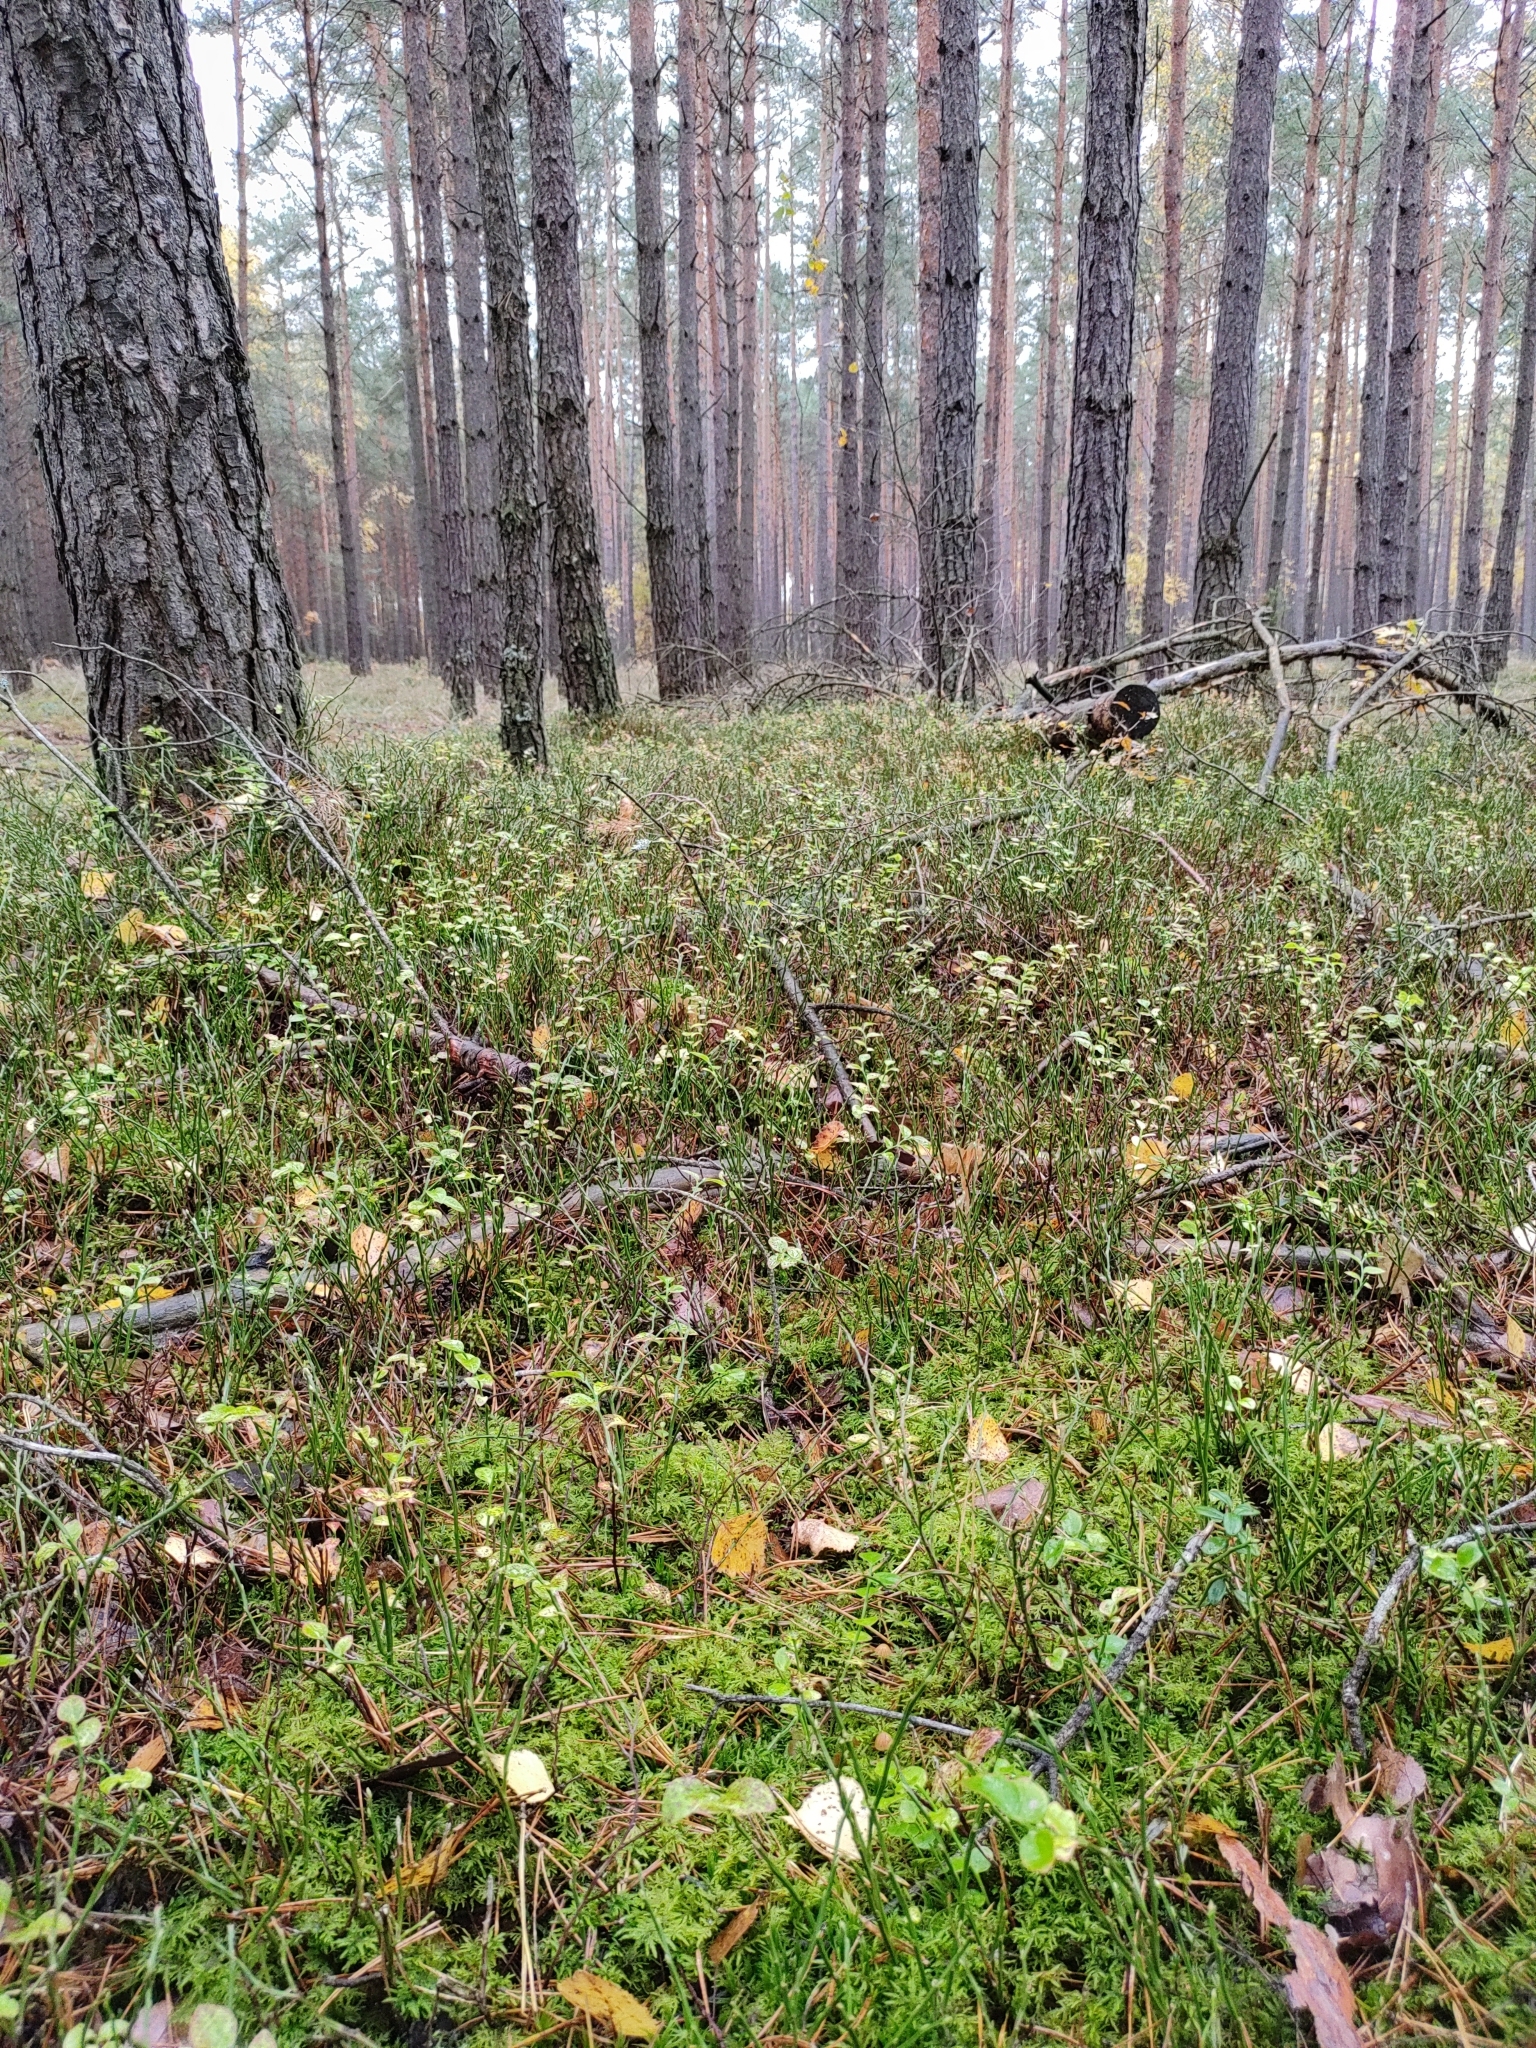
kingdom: Plantae
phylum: Bryophyta
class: Bryopsida
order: Hypnales
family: Hylocomiaceae
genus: Hylocomium
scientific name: Hylocomium splendens
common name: Stairstep moss
